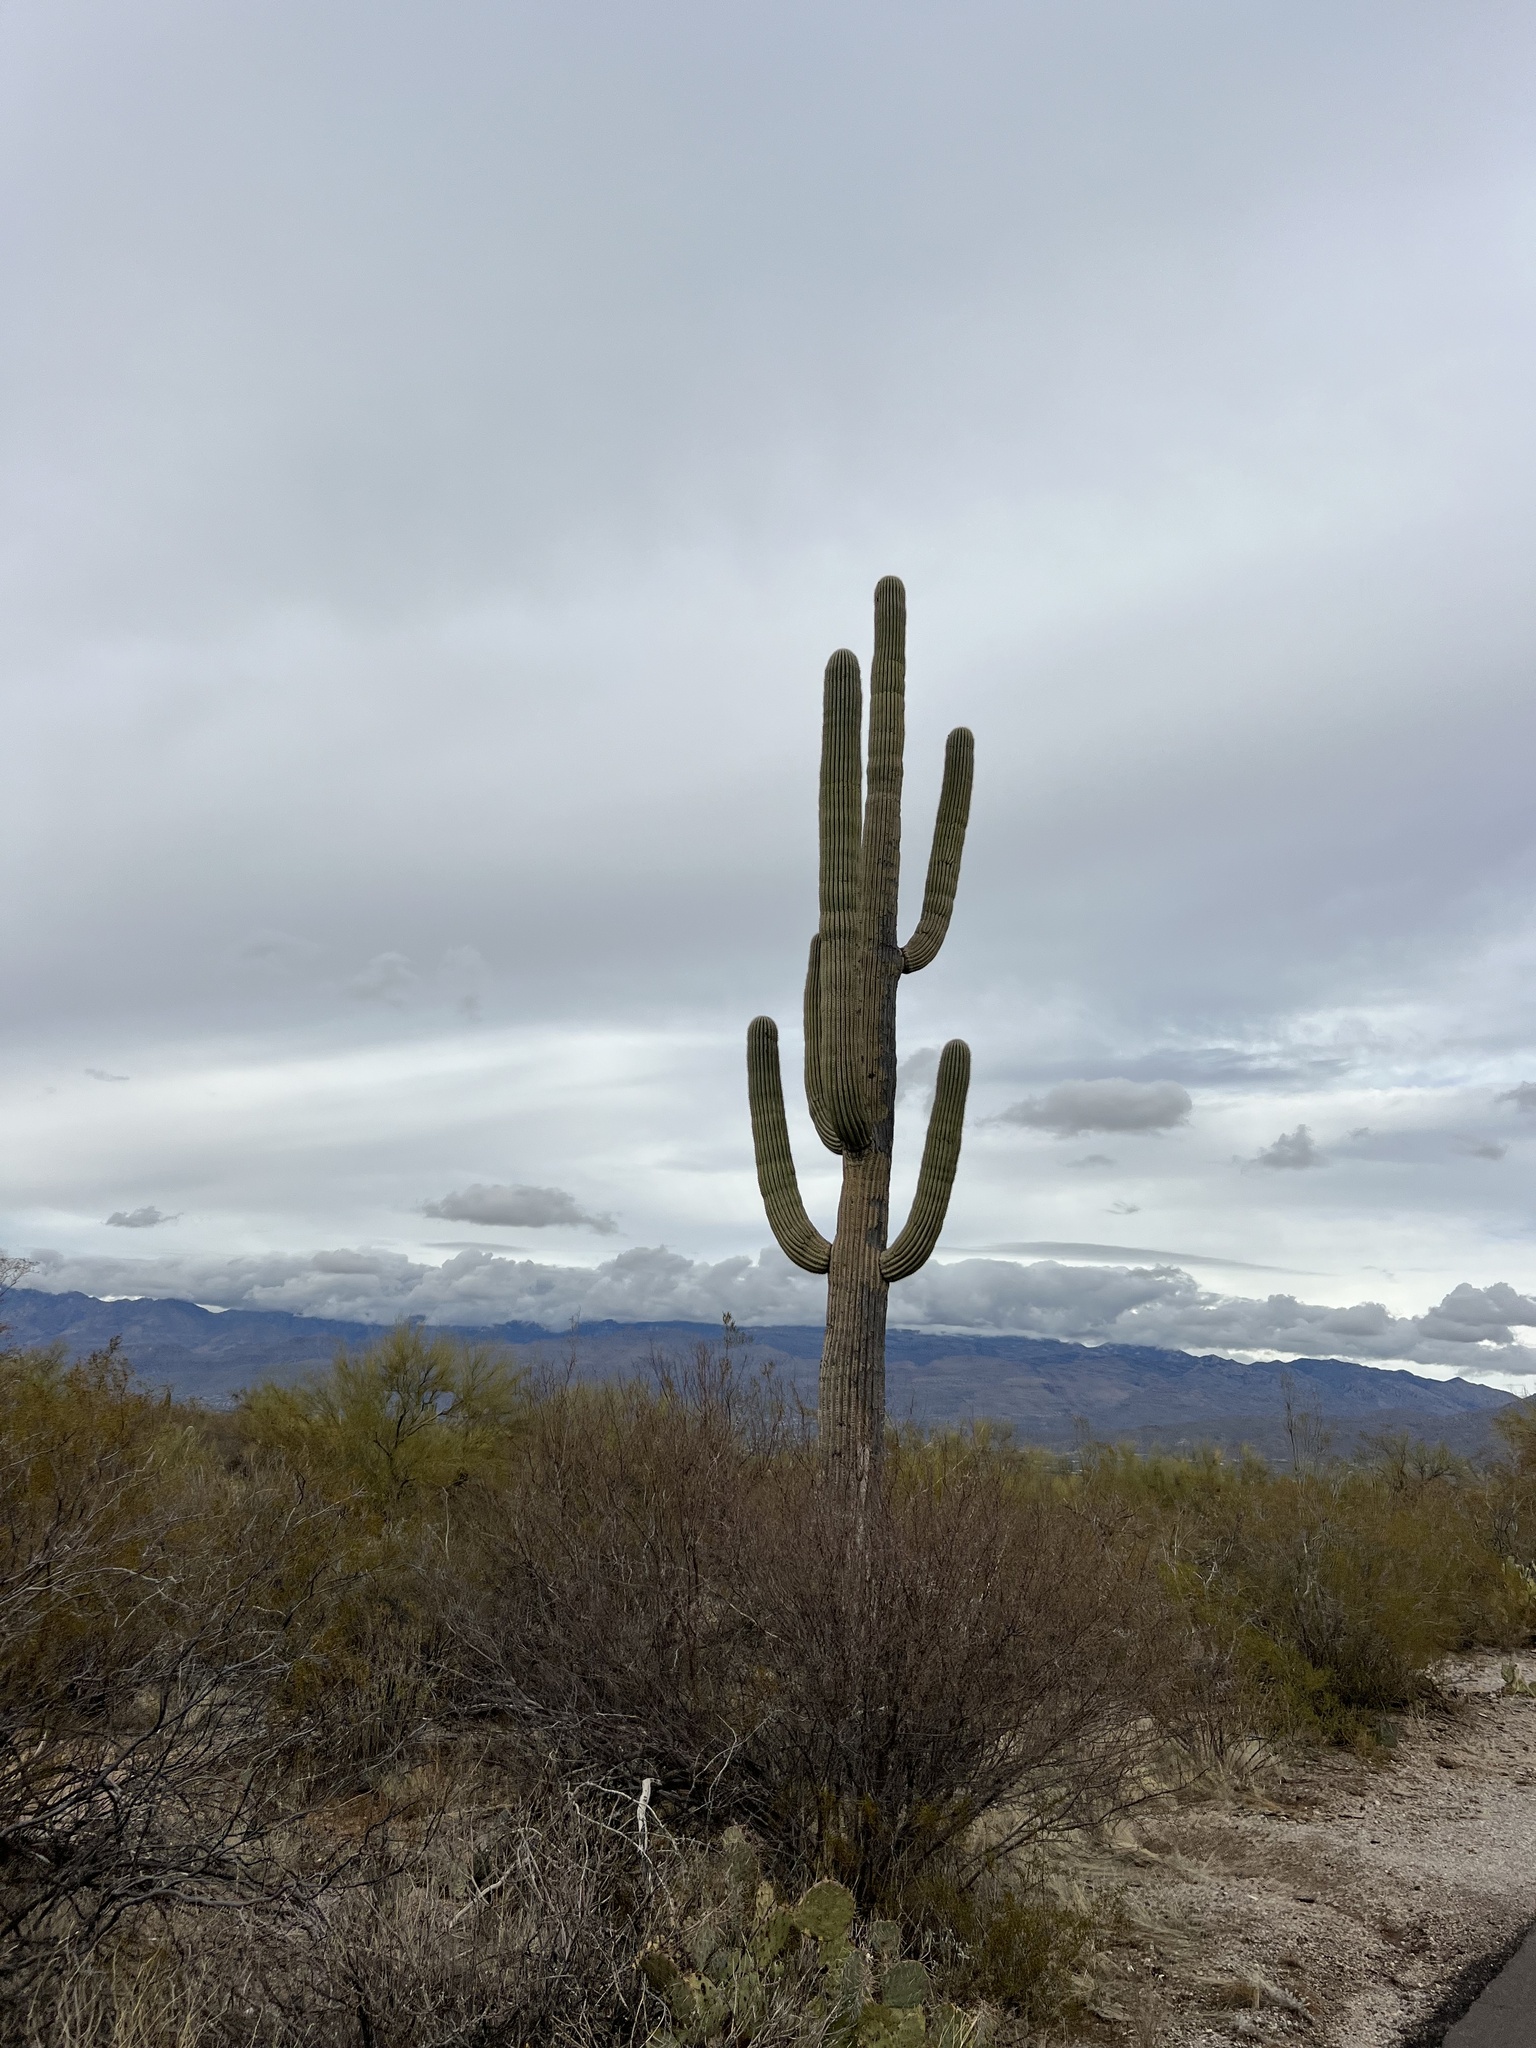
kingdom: Plantae
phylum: Tracheophyta
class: Magnoliopsida
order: Caryophyllales
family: Cactaceae
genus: Carnegiea
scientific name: Carnegiea gigantea
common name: Saguaro
